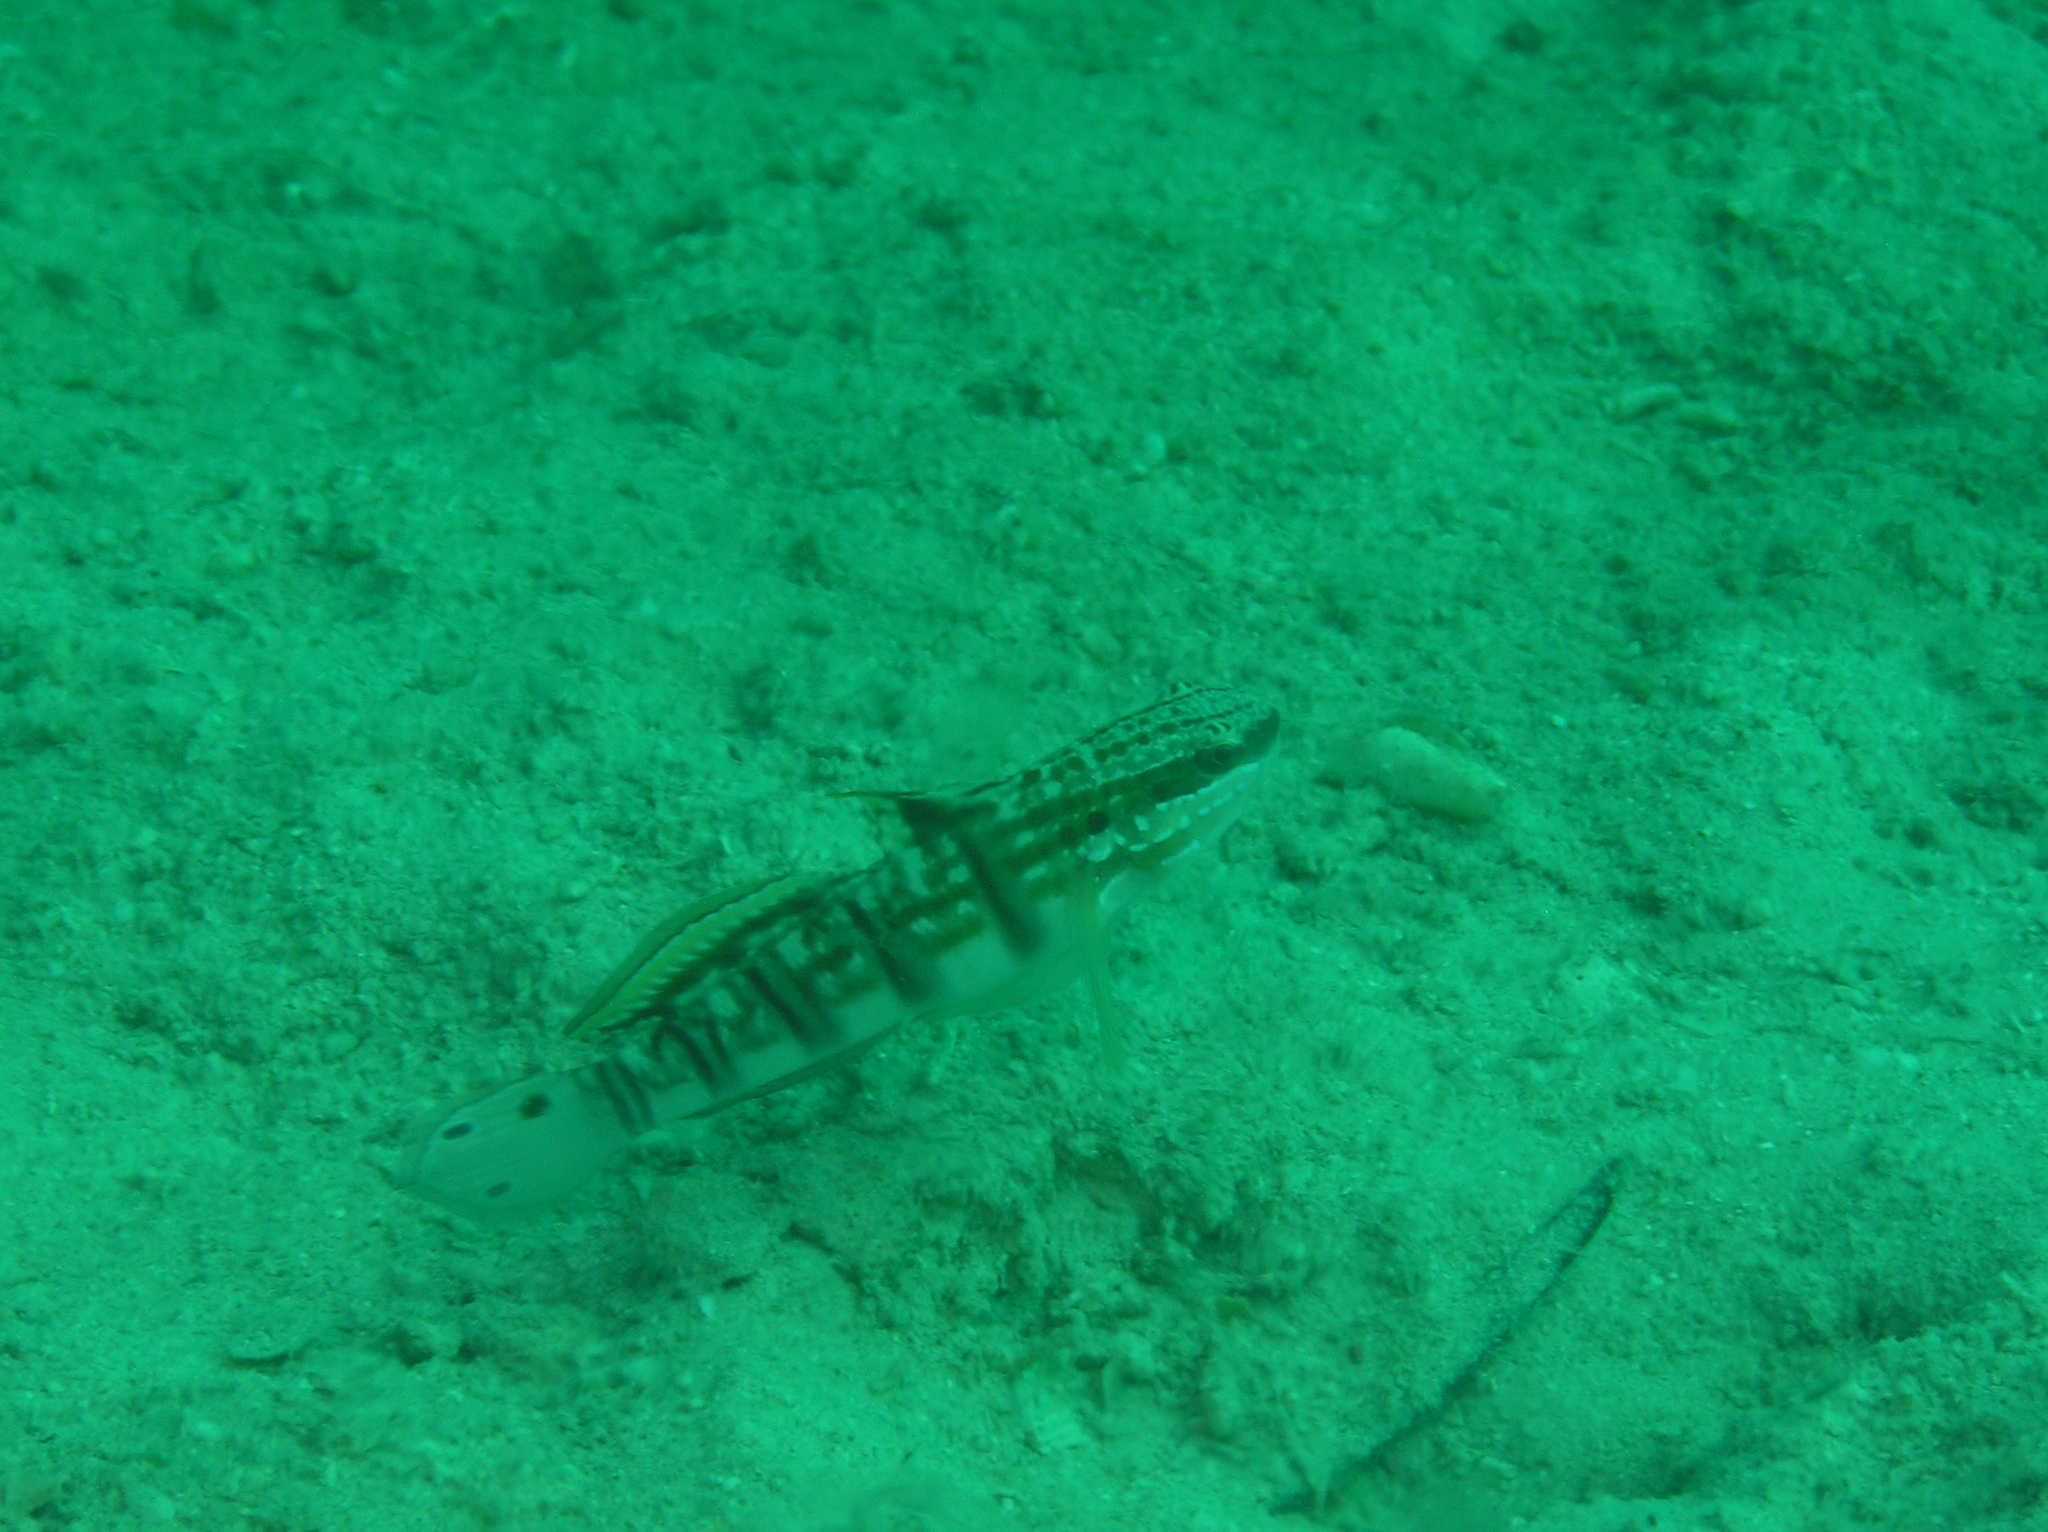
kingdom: Animalia
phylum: Chordata
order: Perciformes
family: Gobiidae
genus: Amblygobius
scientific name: Amblygobius phalaena
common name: Banded goby
